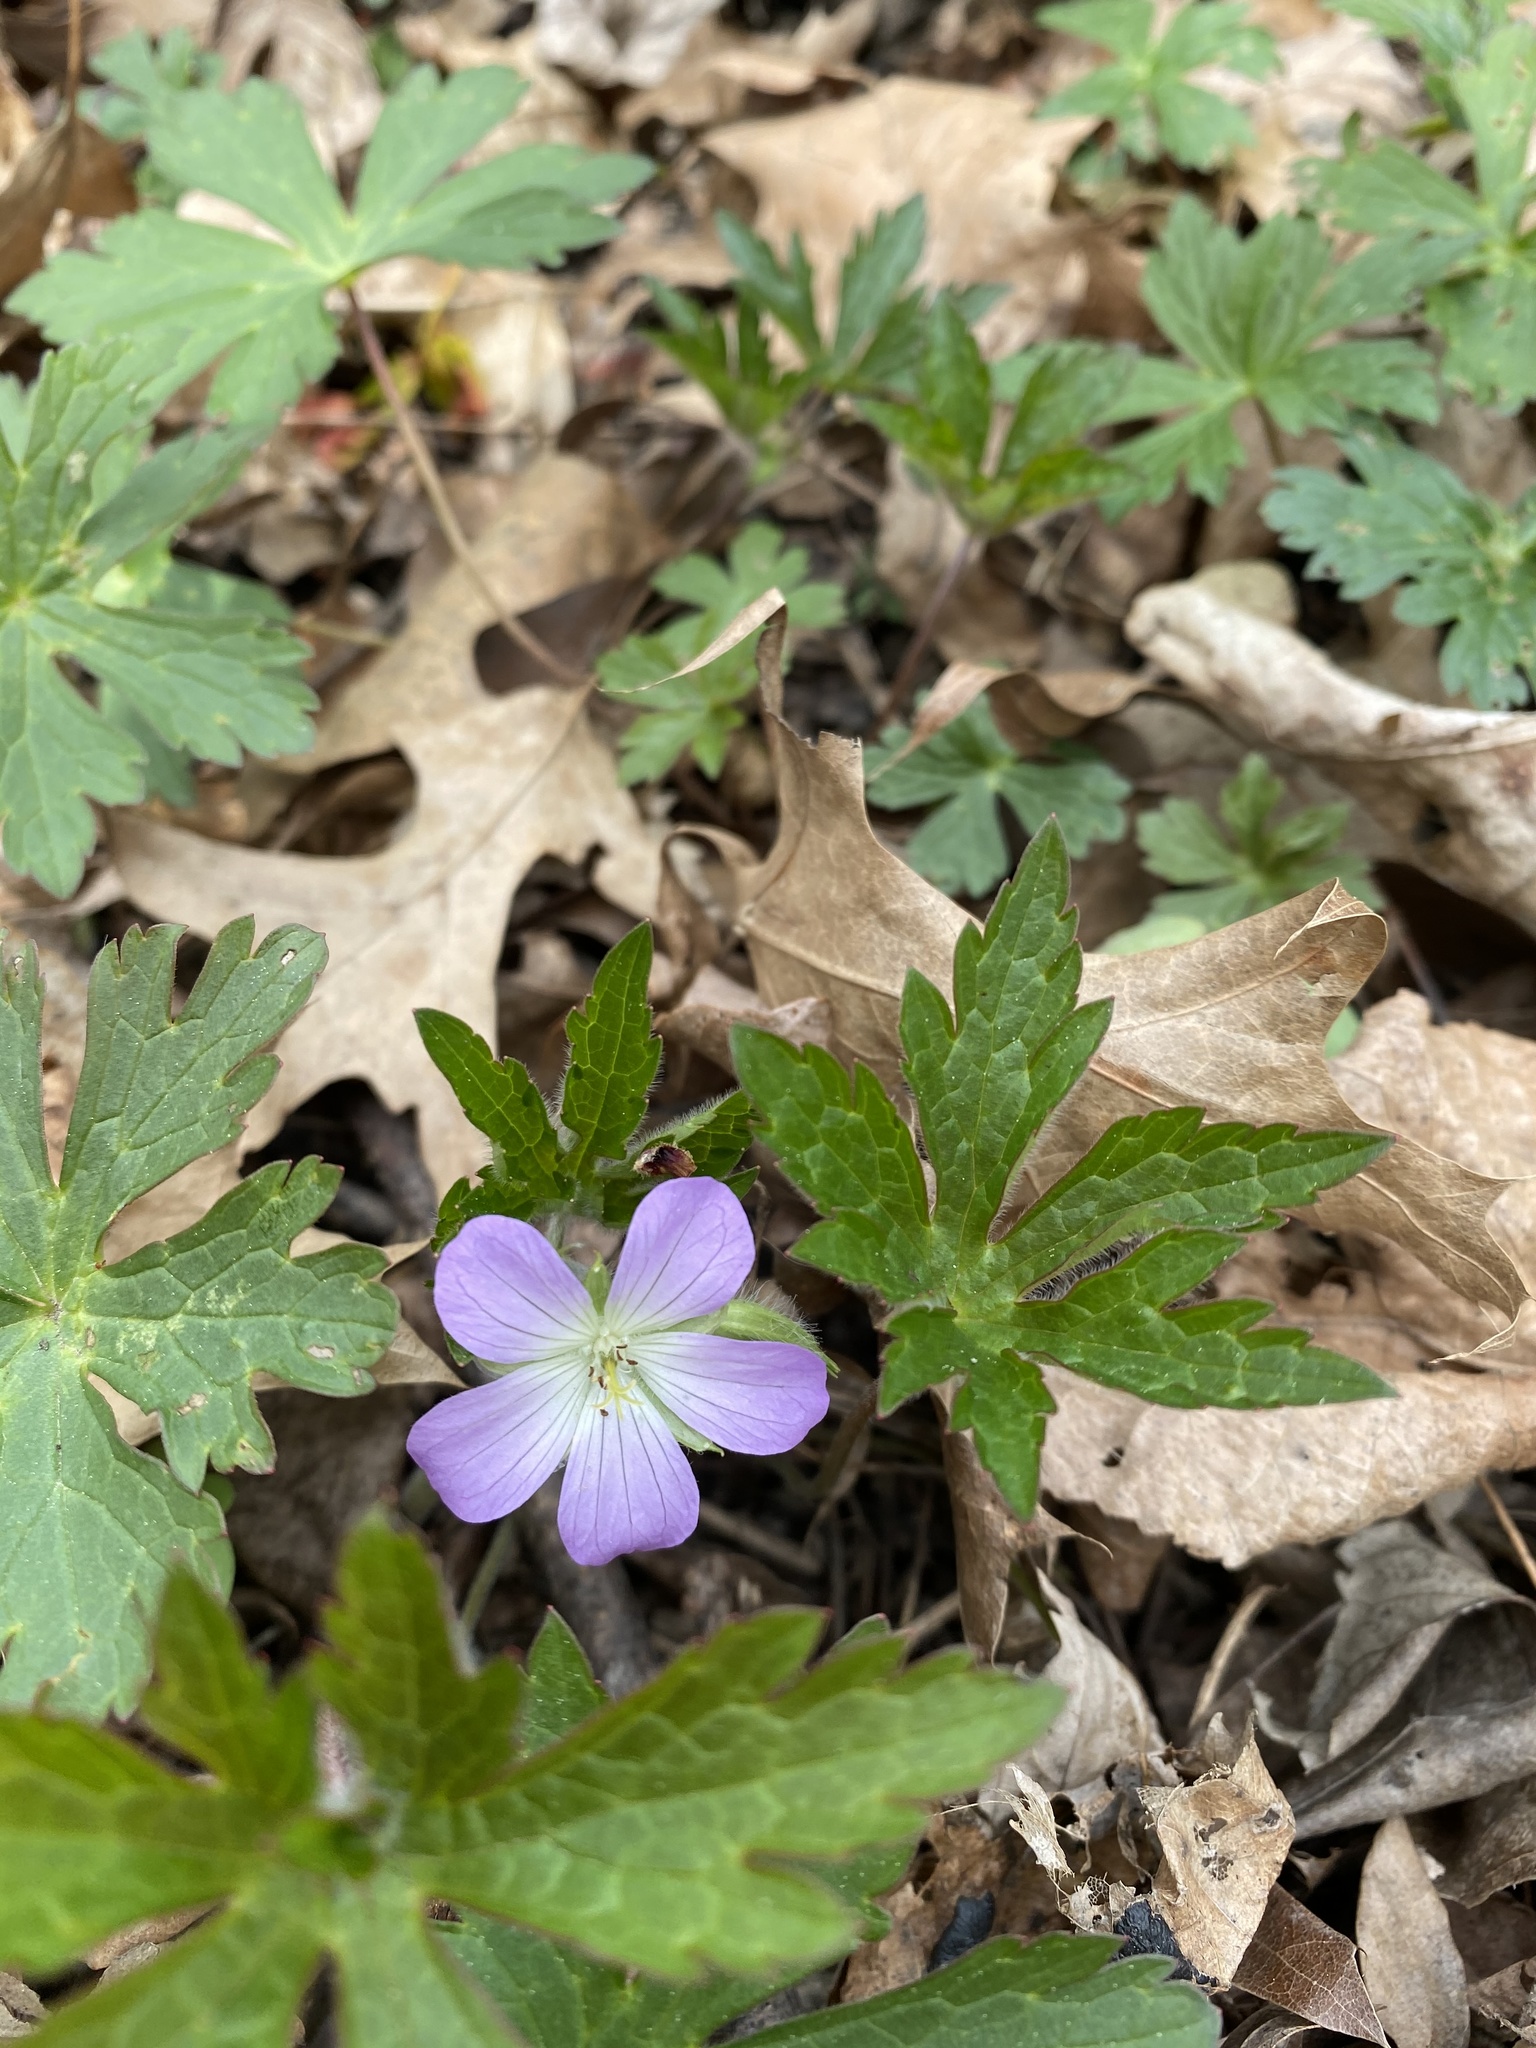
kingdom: Plantae
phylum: Tracheophyta
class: Magnoliopsida
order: Geraniales
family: Geraniaceae
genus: Geranium
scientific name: Geranium maculatum
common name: Spotted geranium
